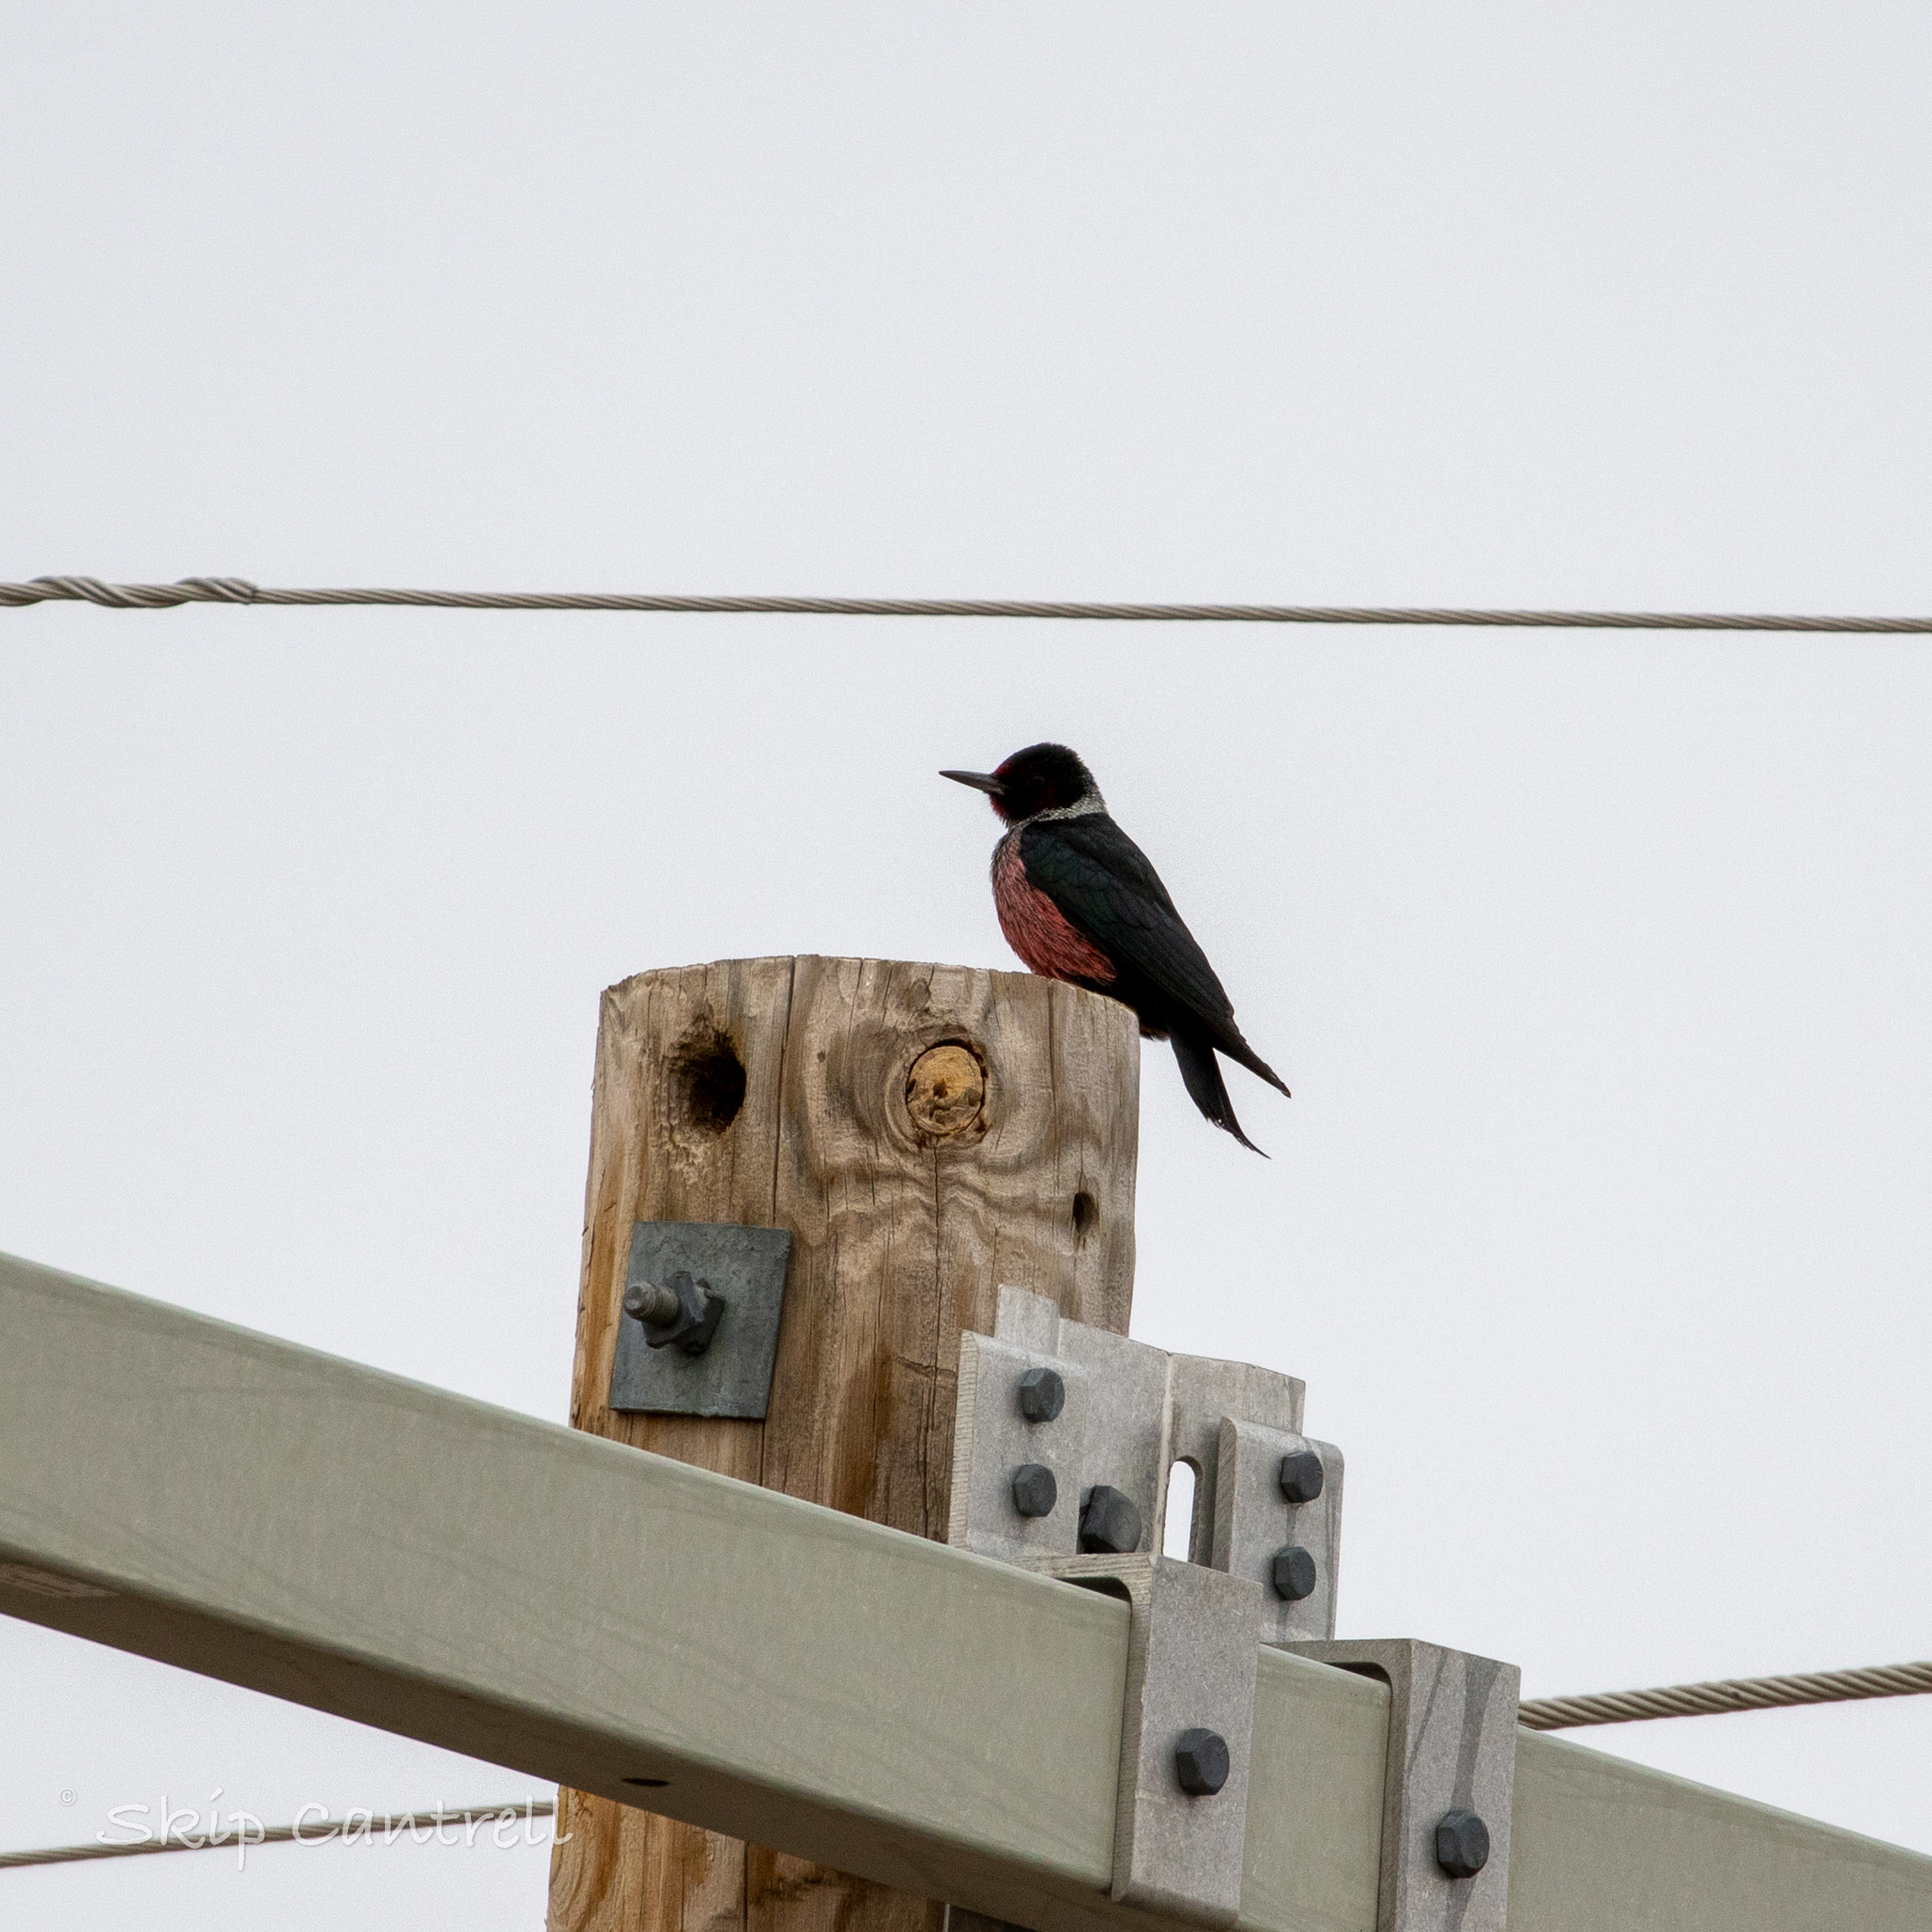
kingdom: Animalia
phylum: Chordata
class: Aves
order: Piciformes
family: Picidae
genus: Melanerpes
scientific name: Melanerpes lewis
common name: Lewis's woodpecker
